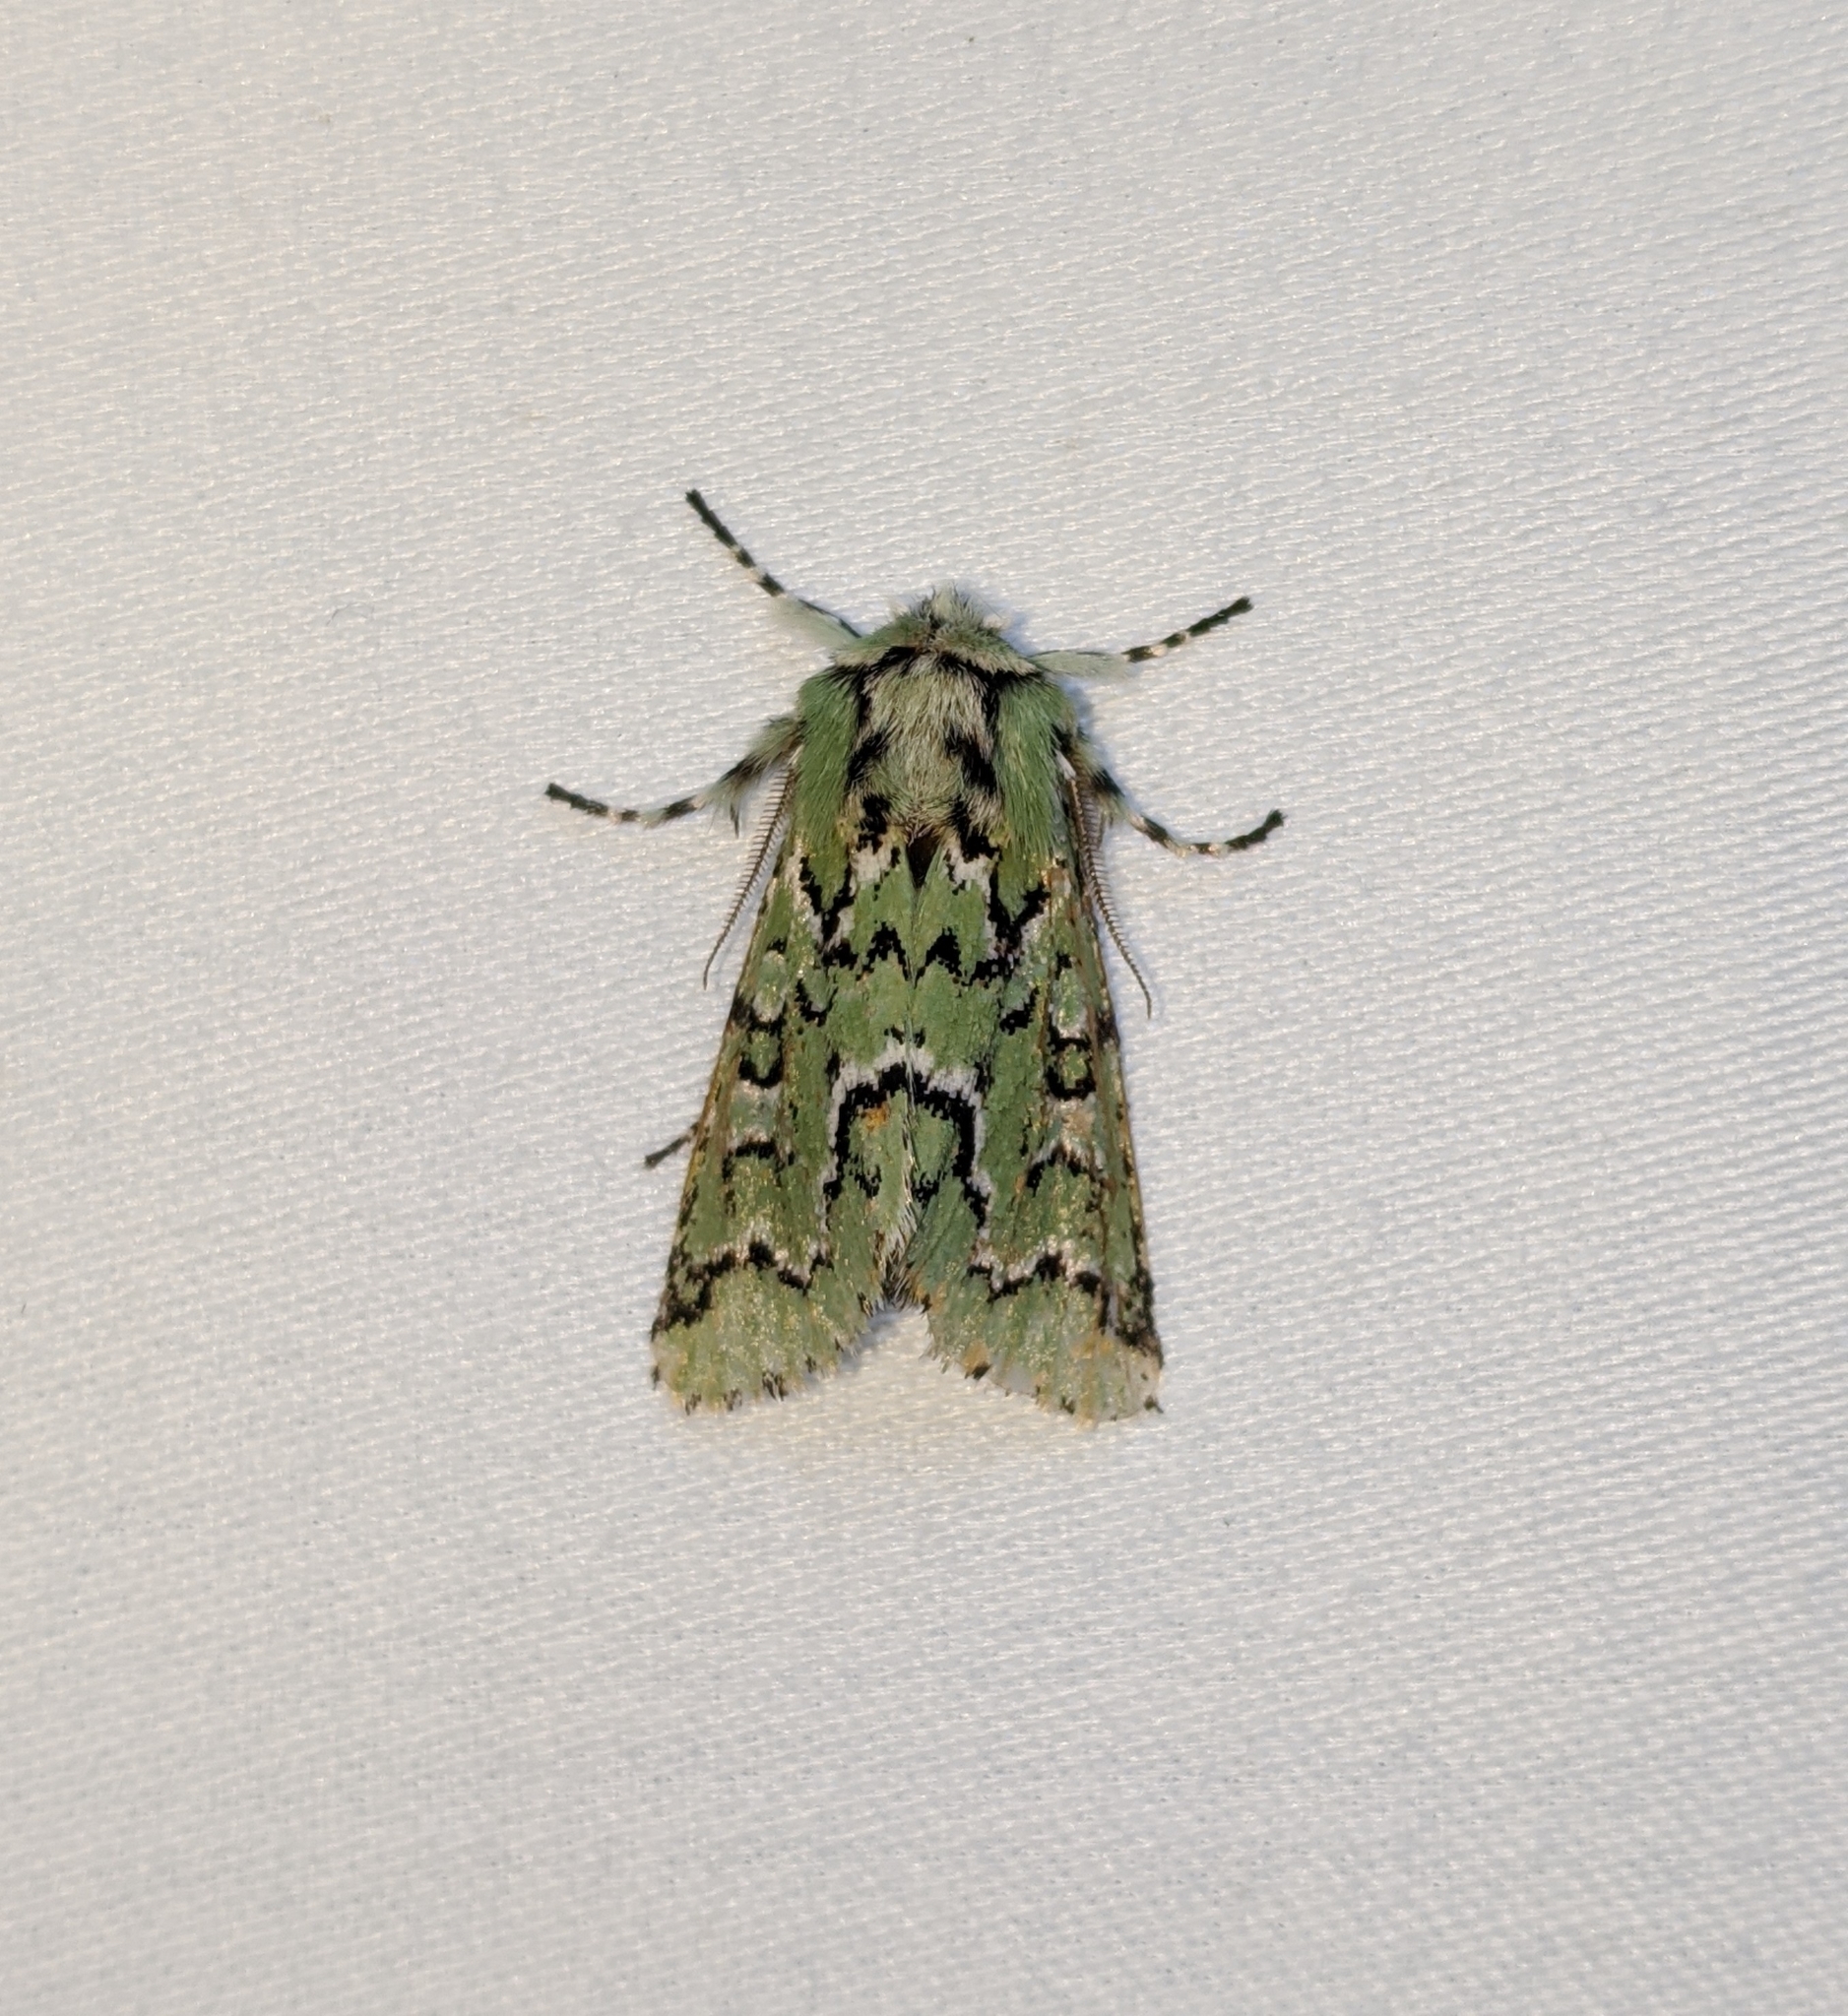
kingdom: Animalia
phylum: Arthropoda
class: Insecta
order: Lepidoptera
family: Noctuidae
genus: Feralia
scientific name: Feralia deceptiva
